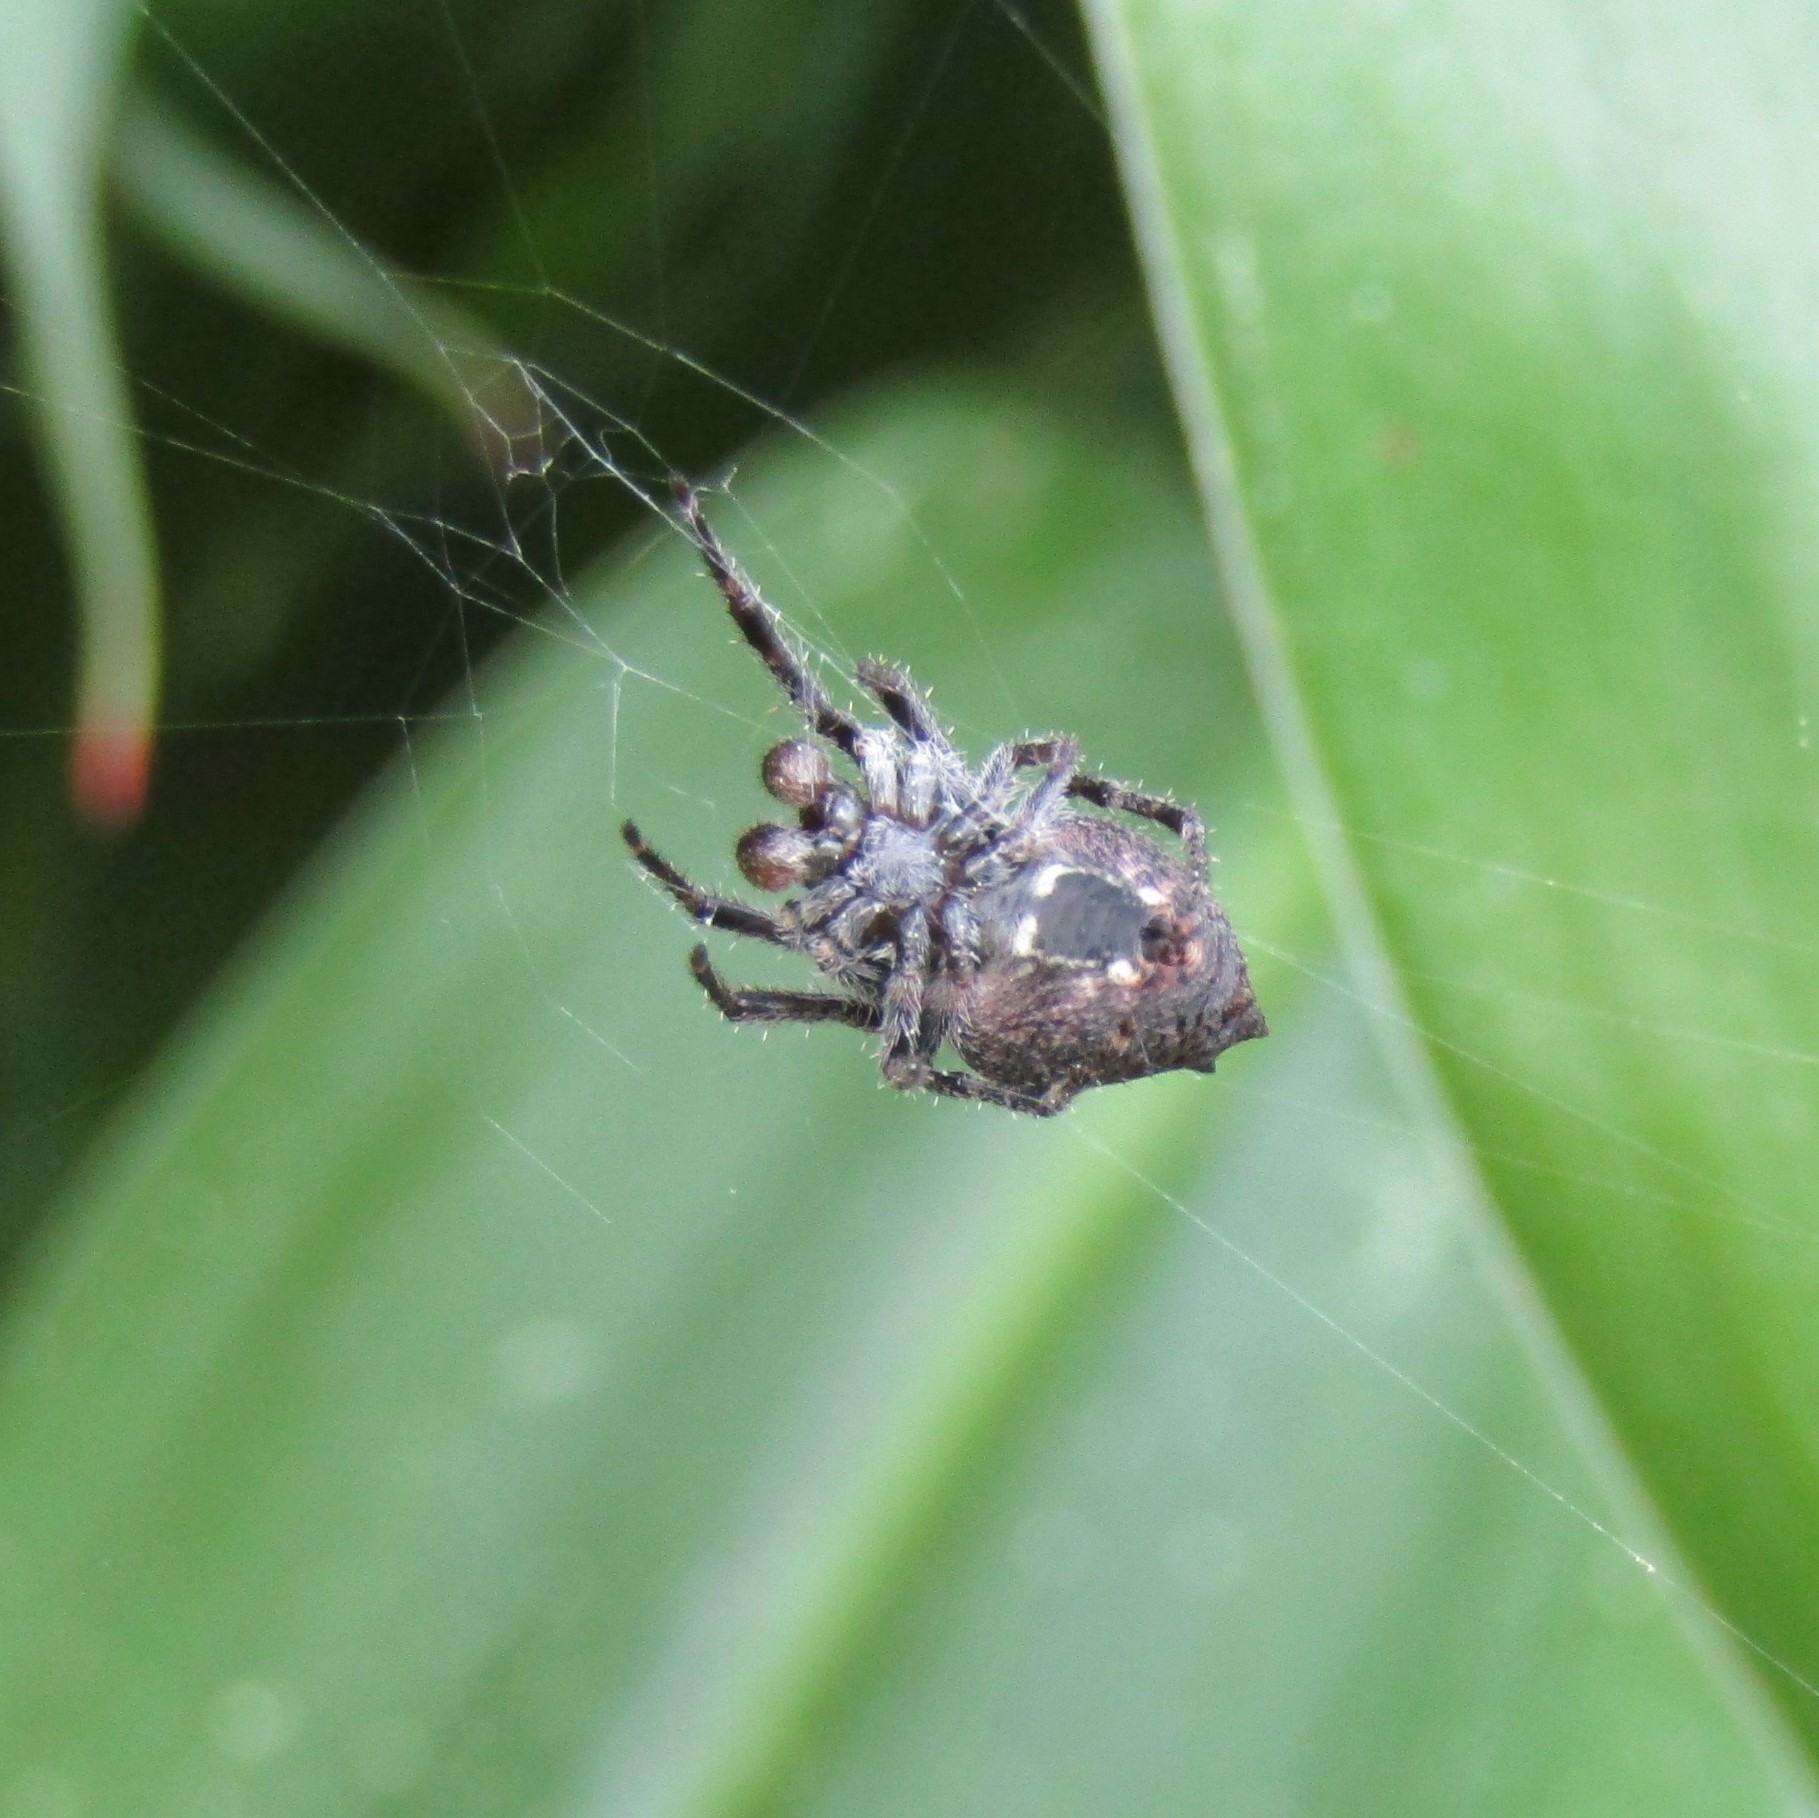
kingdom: Animalia
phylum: Arthropoda
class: Arachnida
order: Araneae
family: Araneidae
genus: Eriophora
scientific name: Eriophora pustulosa
